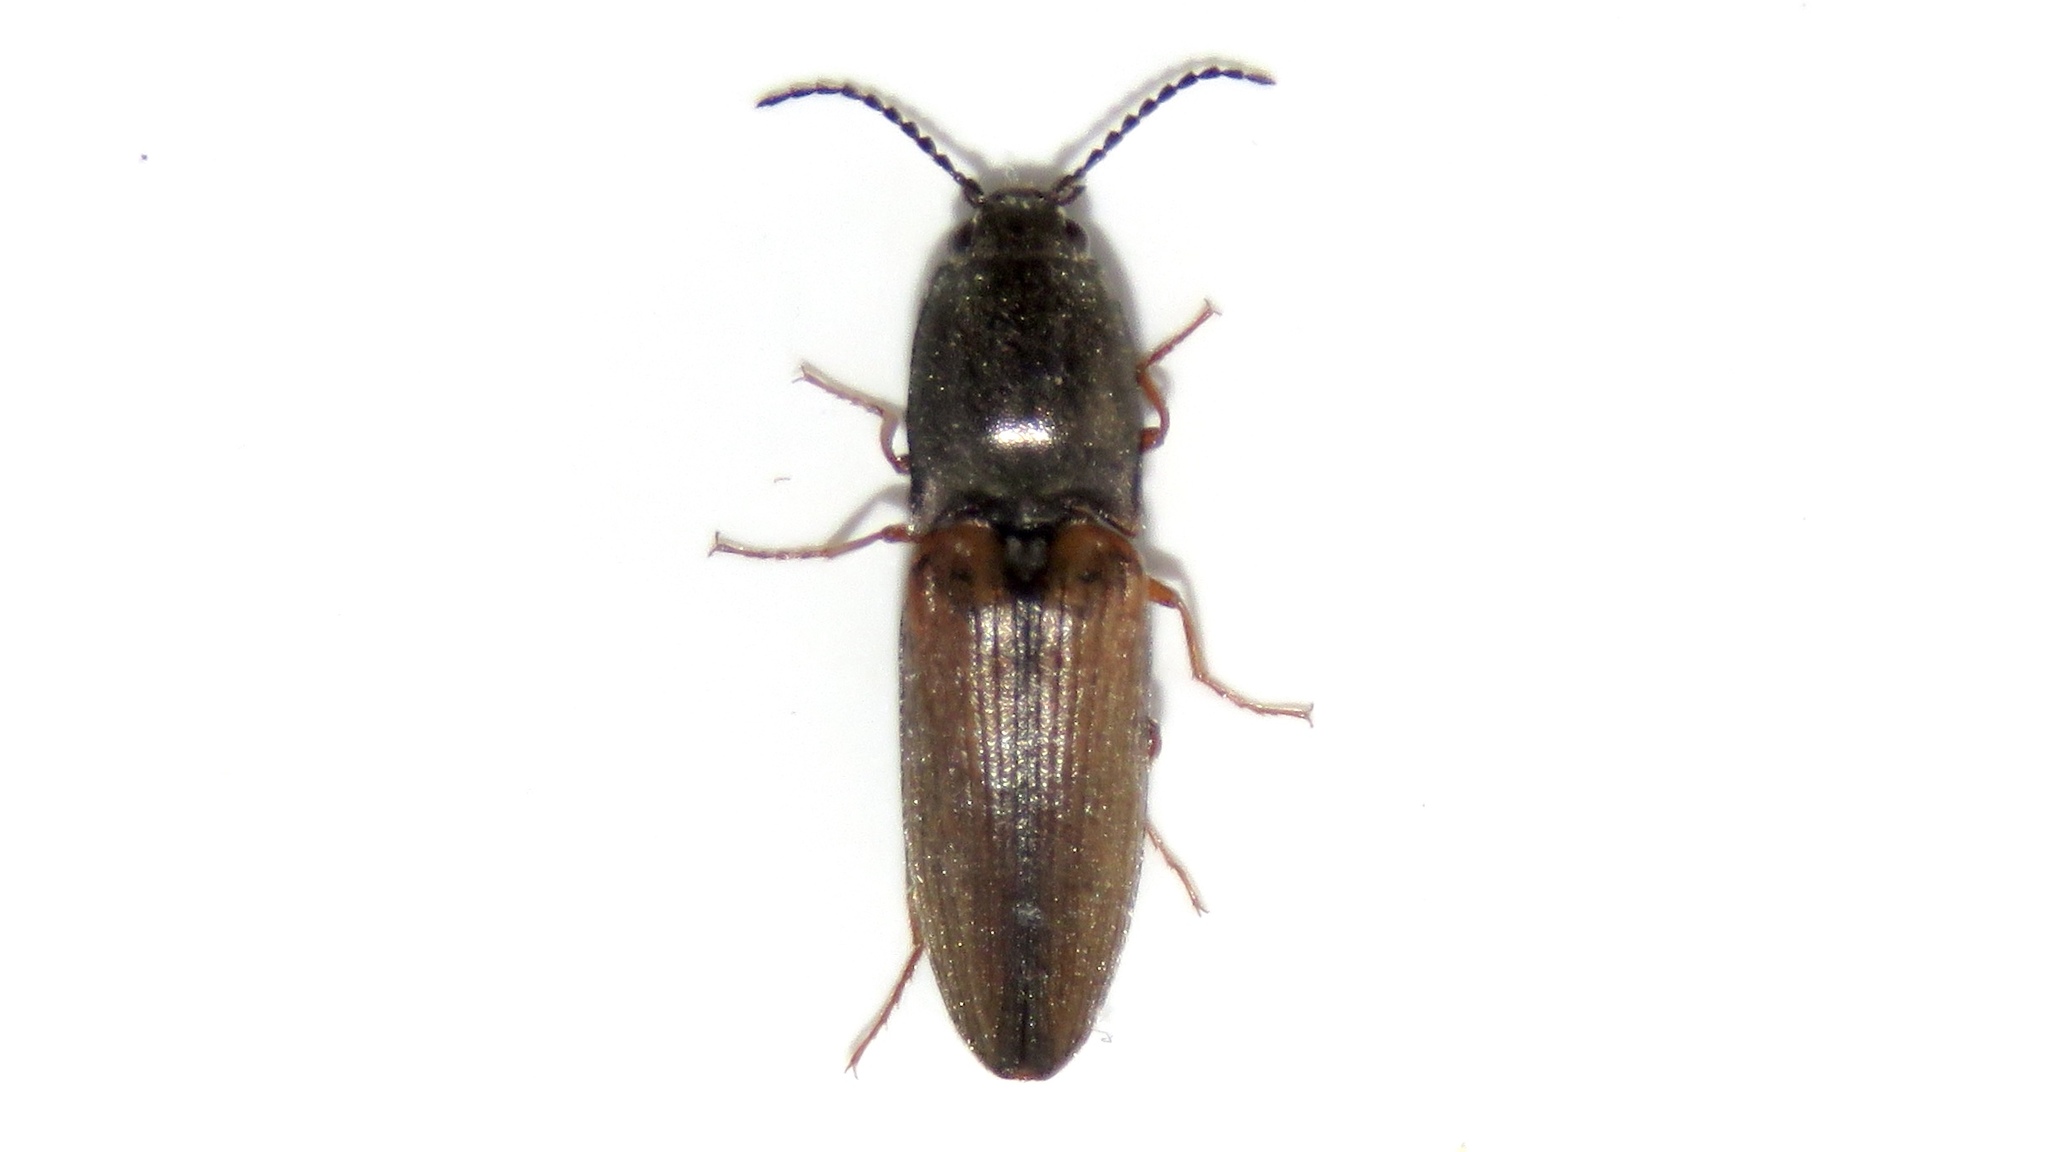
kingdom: Animalia
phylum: Arthropoda
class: Insecta
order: Coleoptera
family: Elateridae
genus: Corymbitodes
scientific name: Corymbitodes tarsalis
